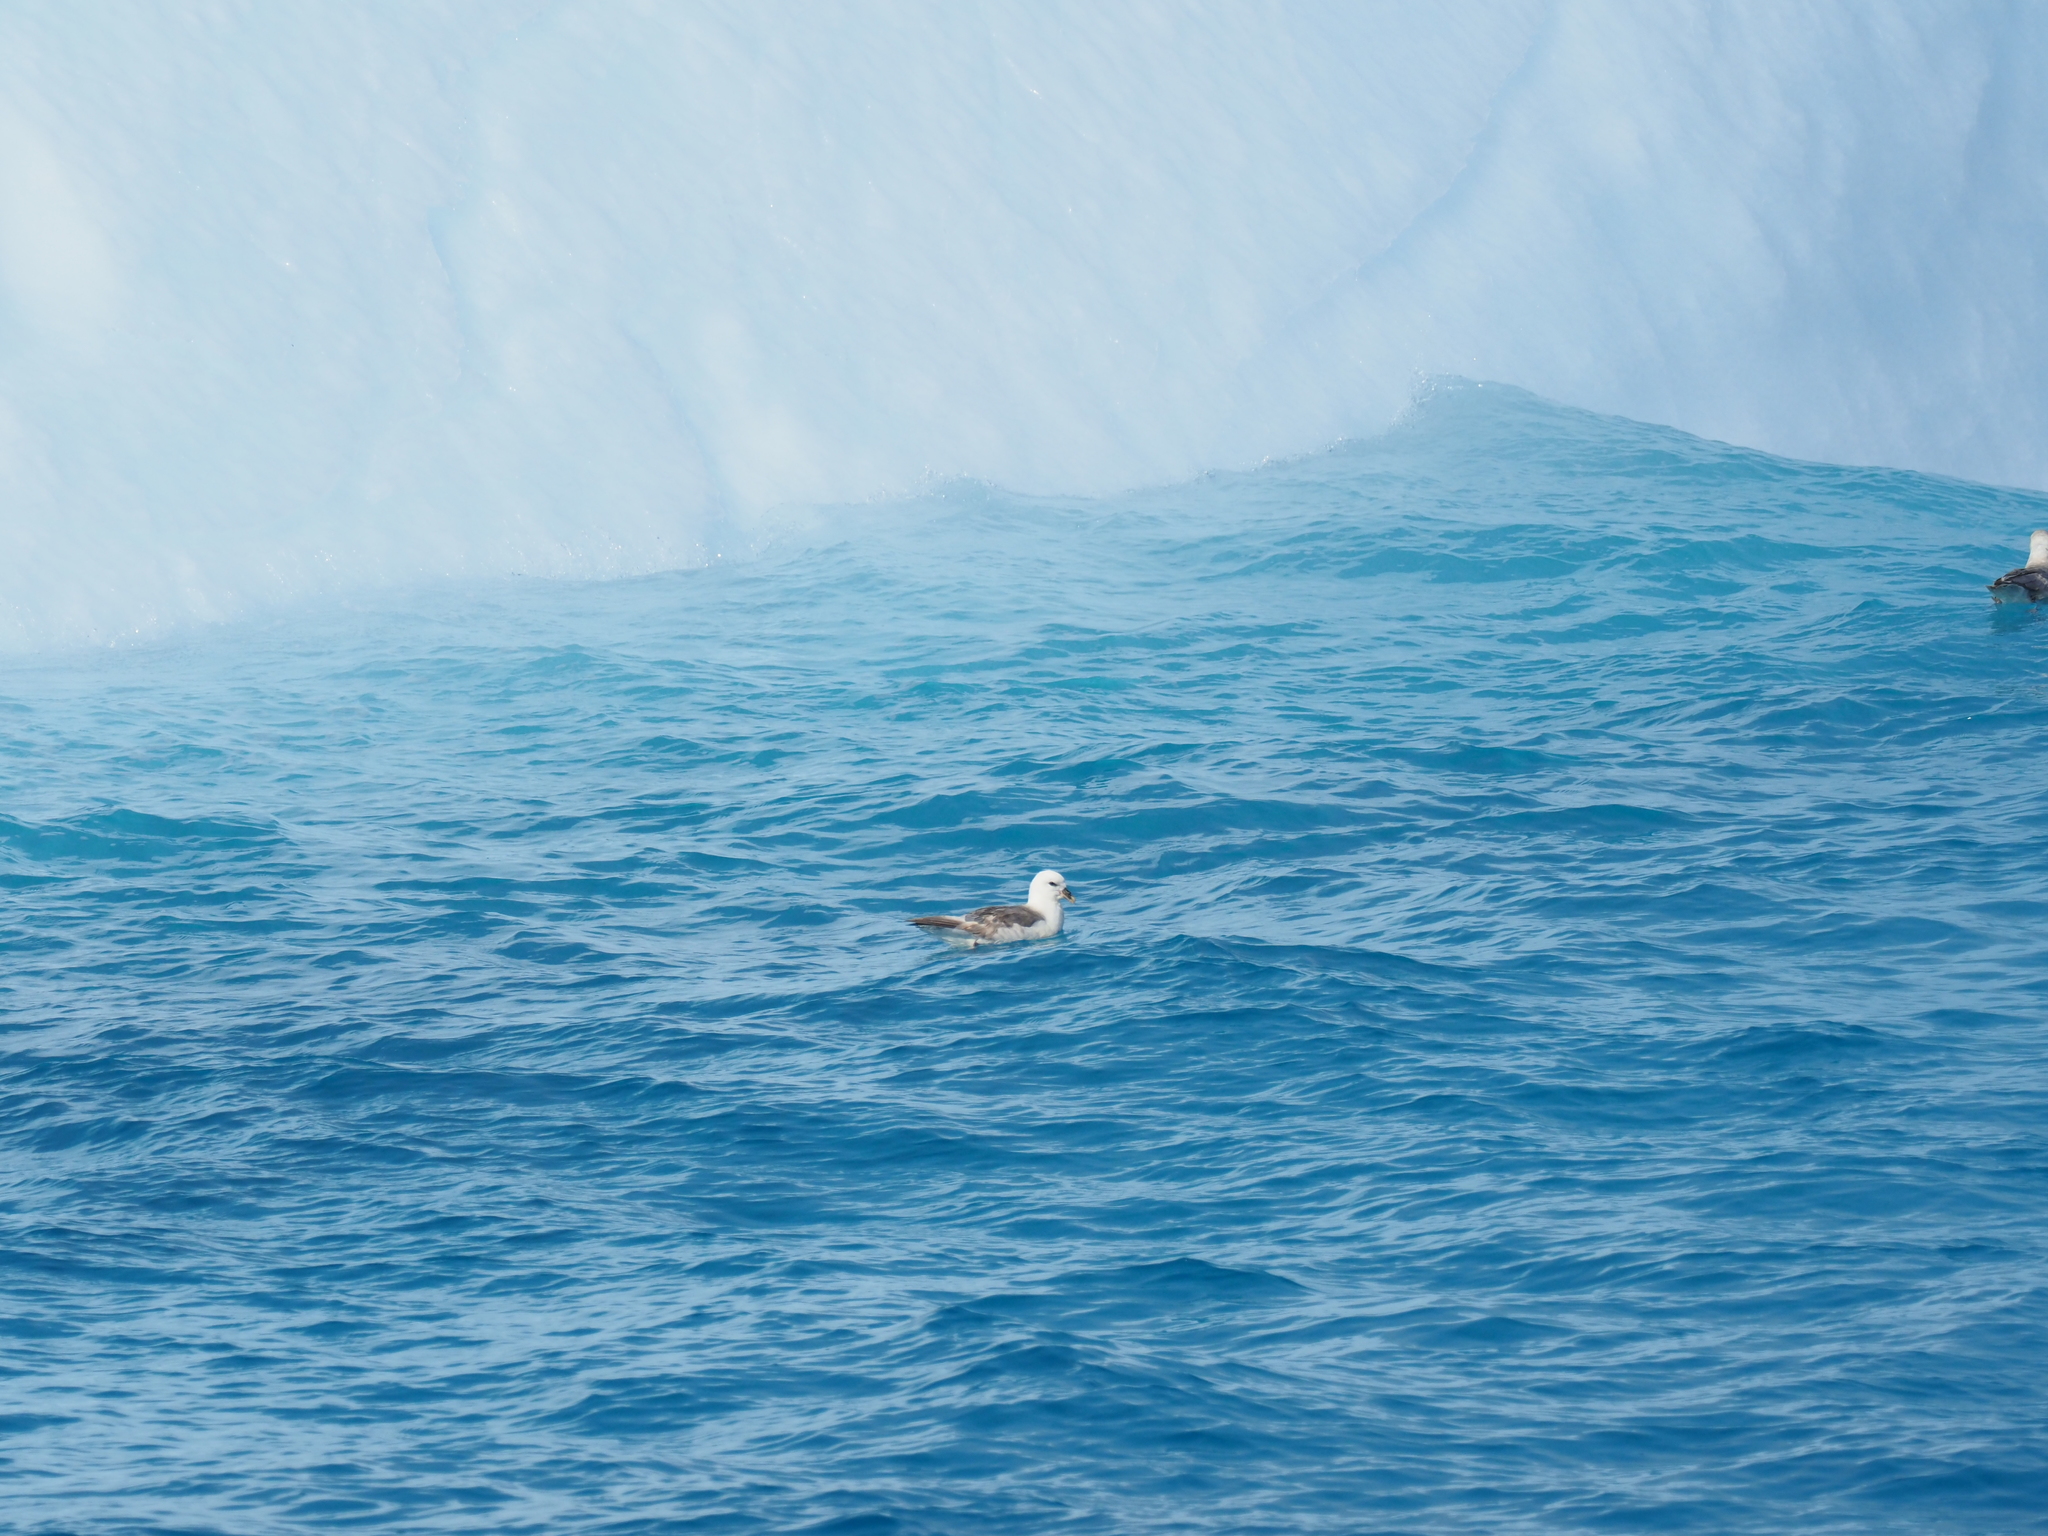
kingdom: Animalia
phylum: Chordata
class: Aves
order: Procellariiformes
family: Procellariidae
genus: Fulmarus
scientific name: Fulmarus glacialis
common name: Northern fulmar
